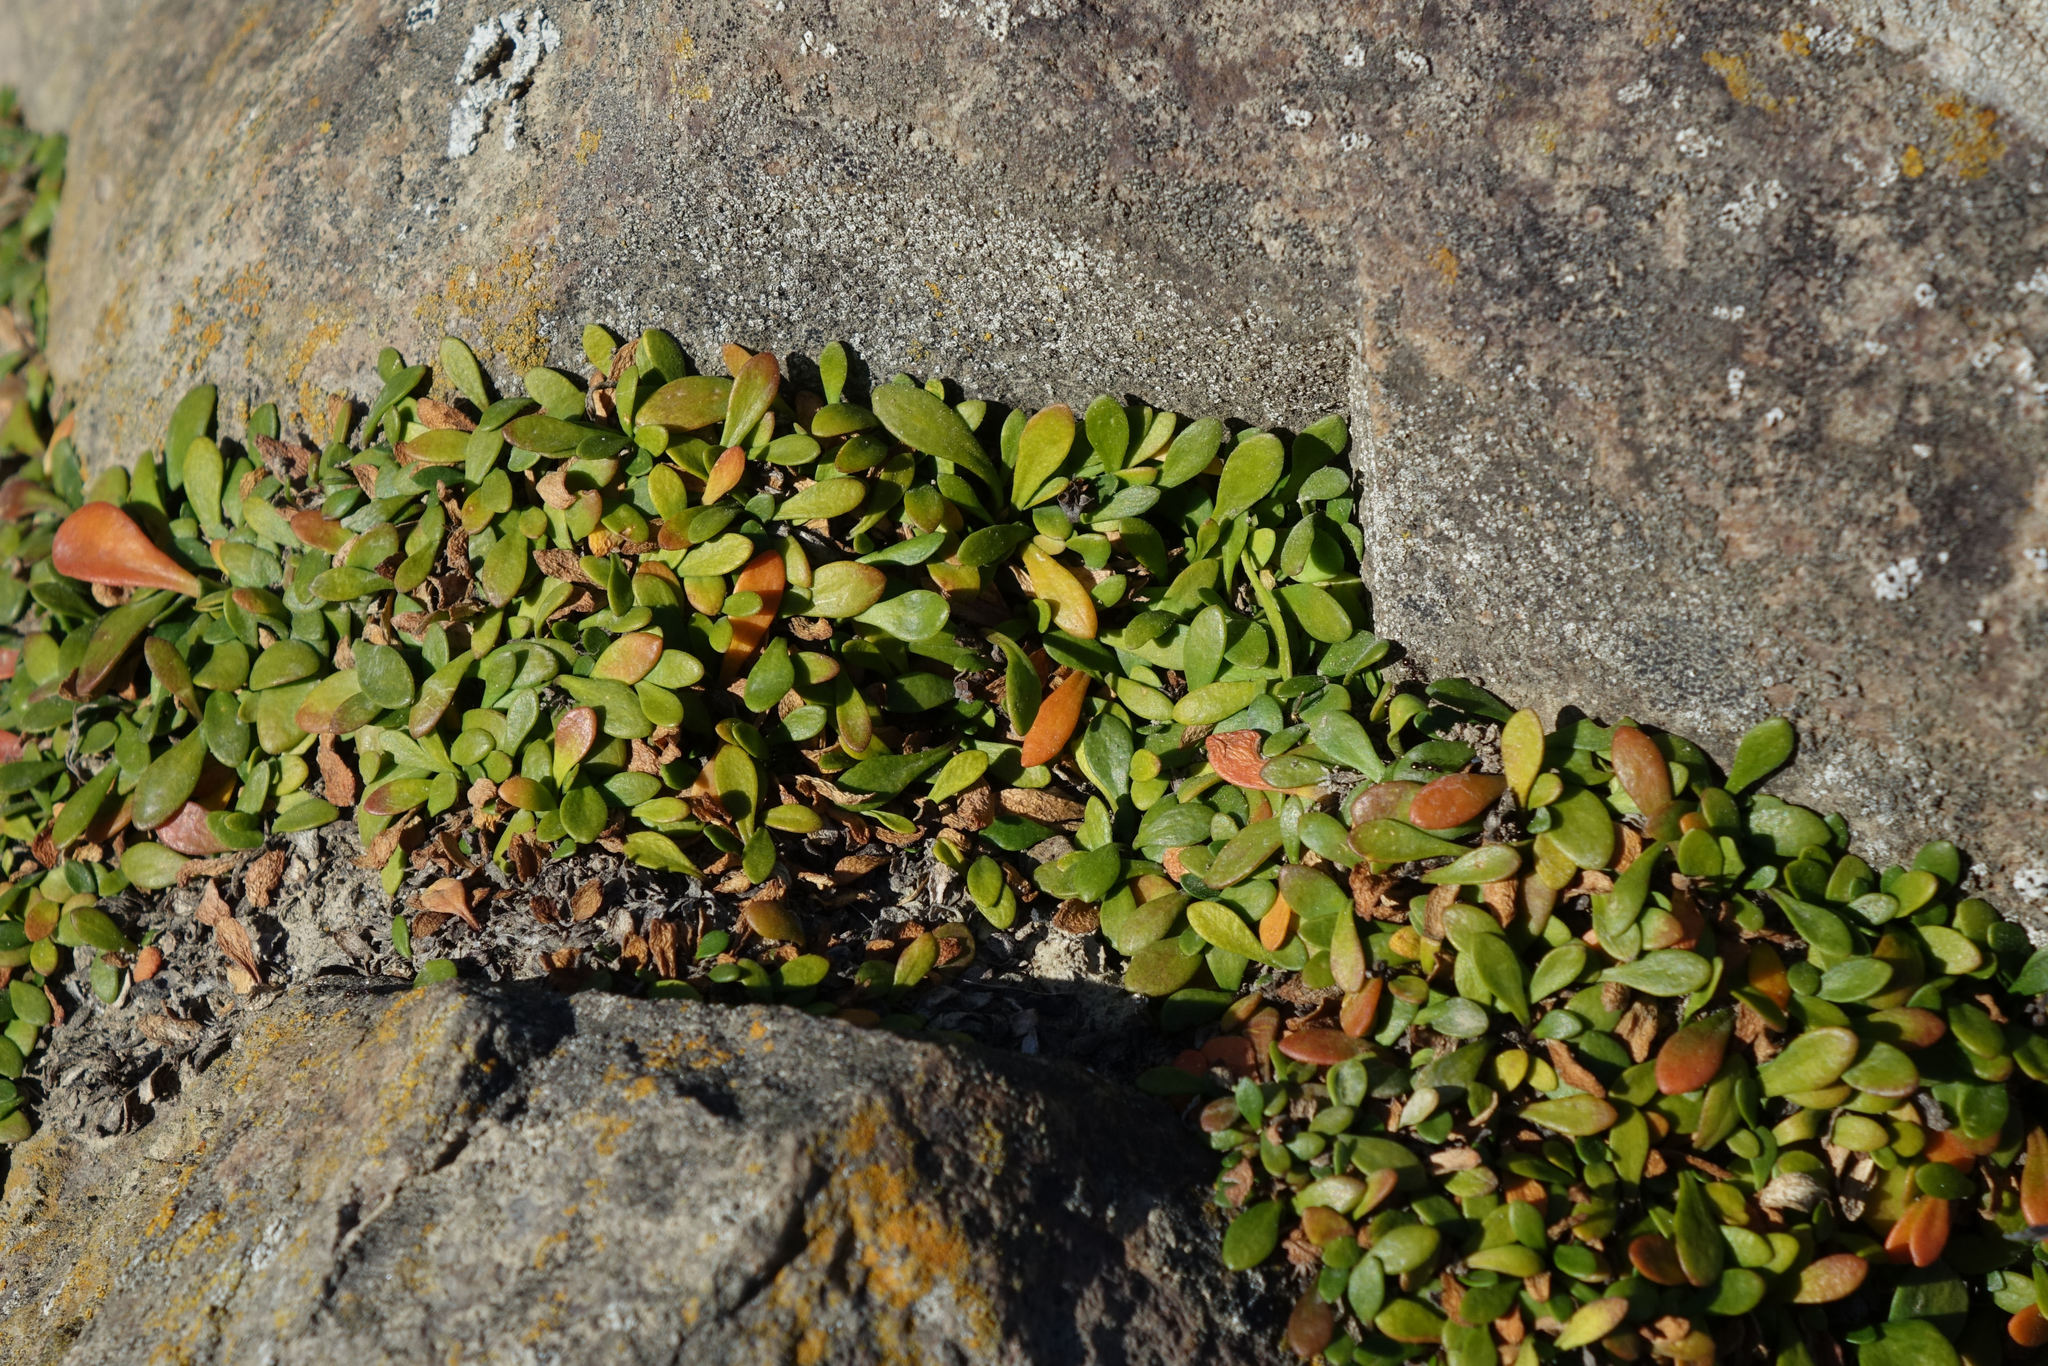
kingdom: Plantae
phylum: Tracheophyta
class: Magnoliopsida
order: Asterales
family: Goodeniaceae
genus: Goodenia
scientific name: Goodenia radicans
